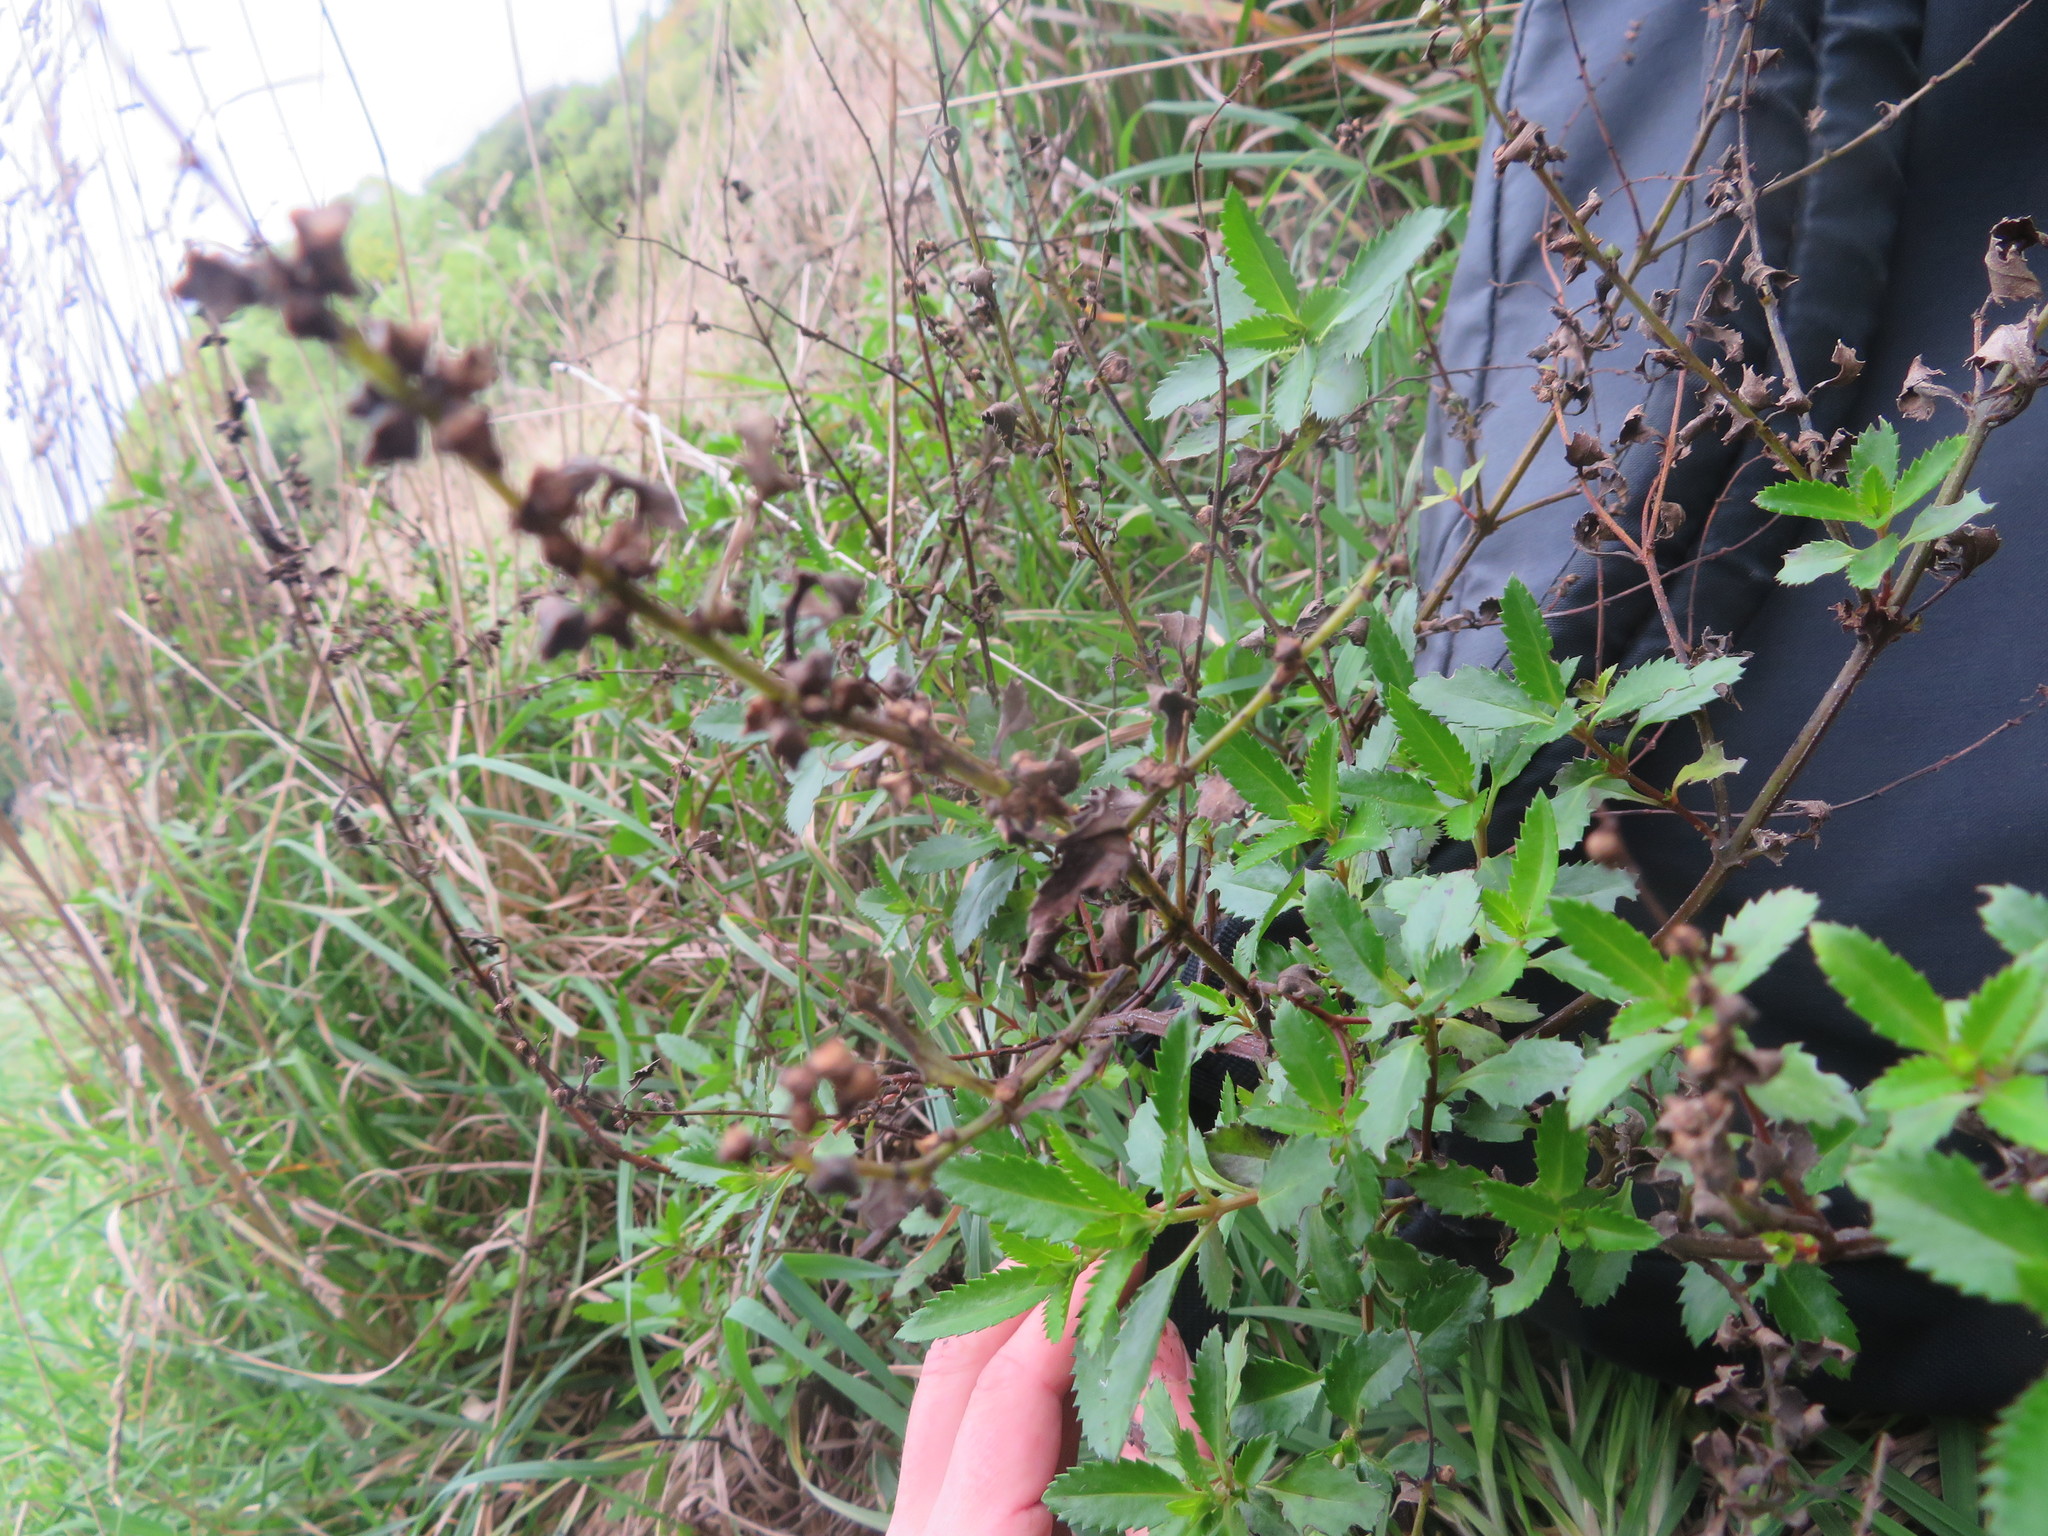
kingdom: Plantae
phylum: Tracheophyta
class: Magnoliopsida
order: Saxifragales
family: Haloragaceae
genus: Haloragis
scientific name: Haloragis erecta
